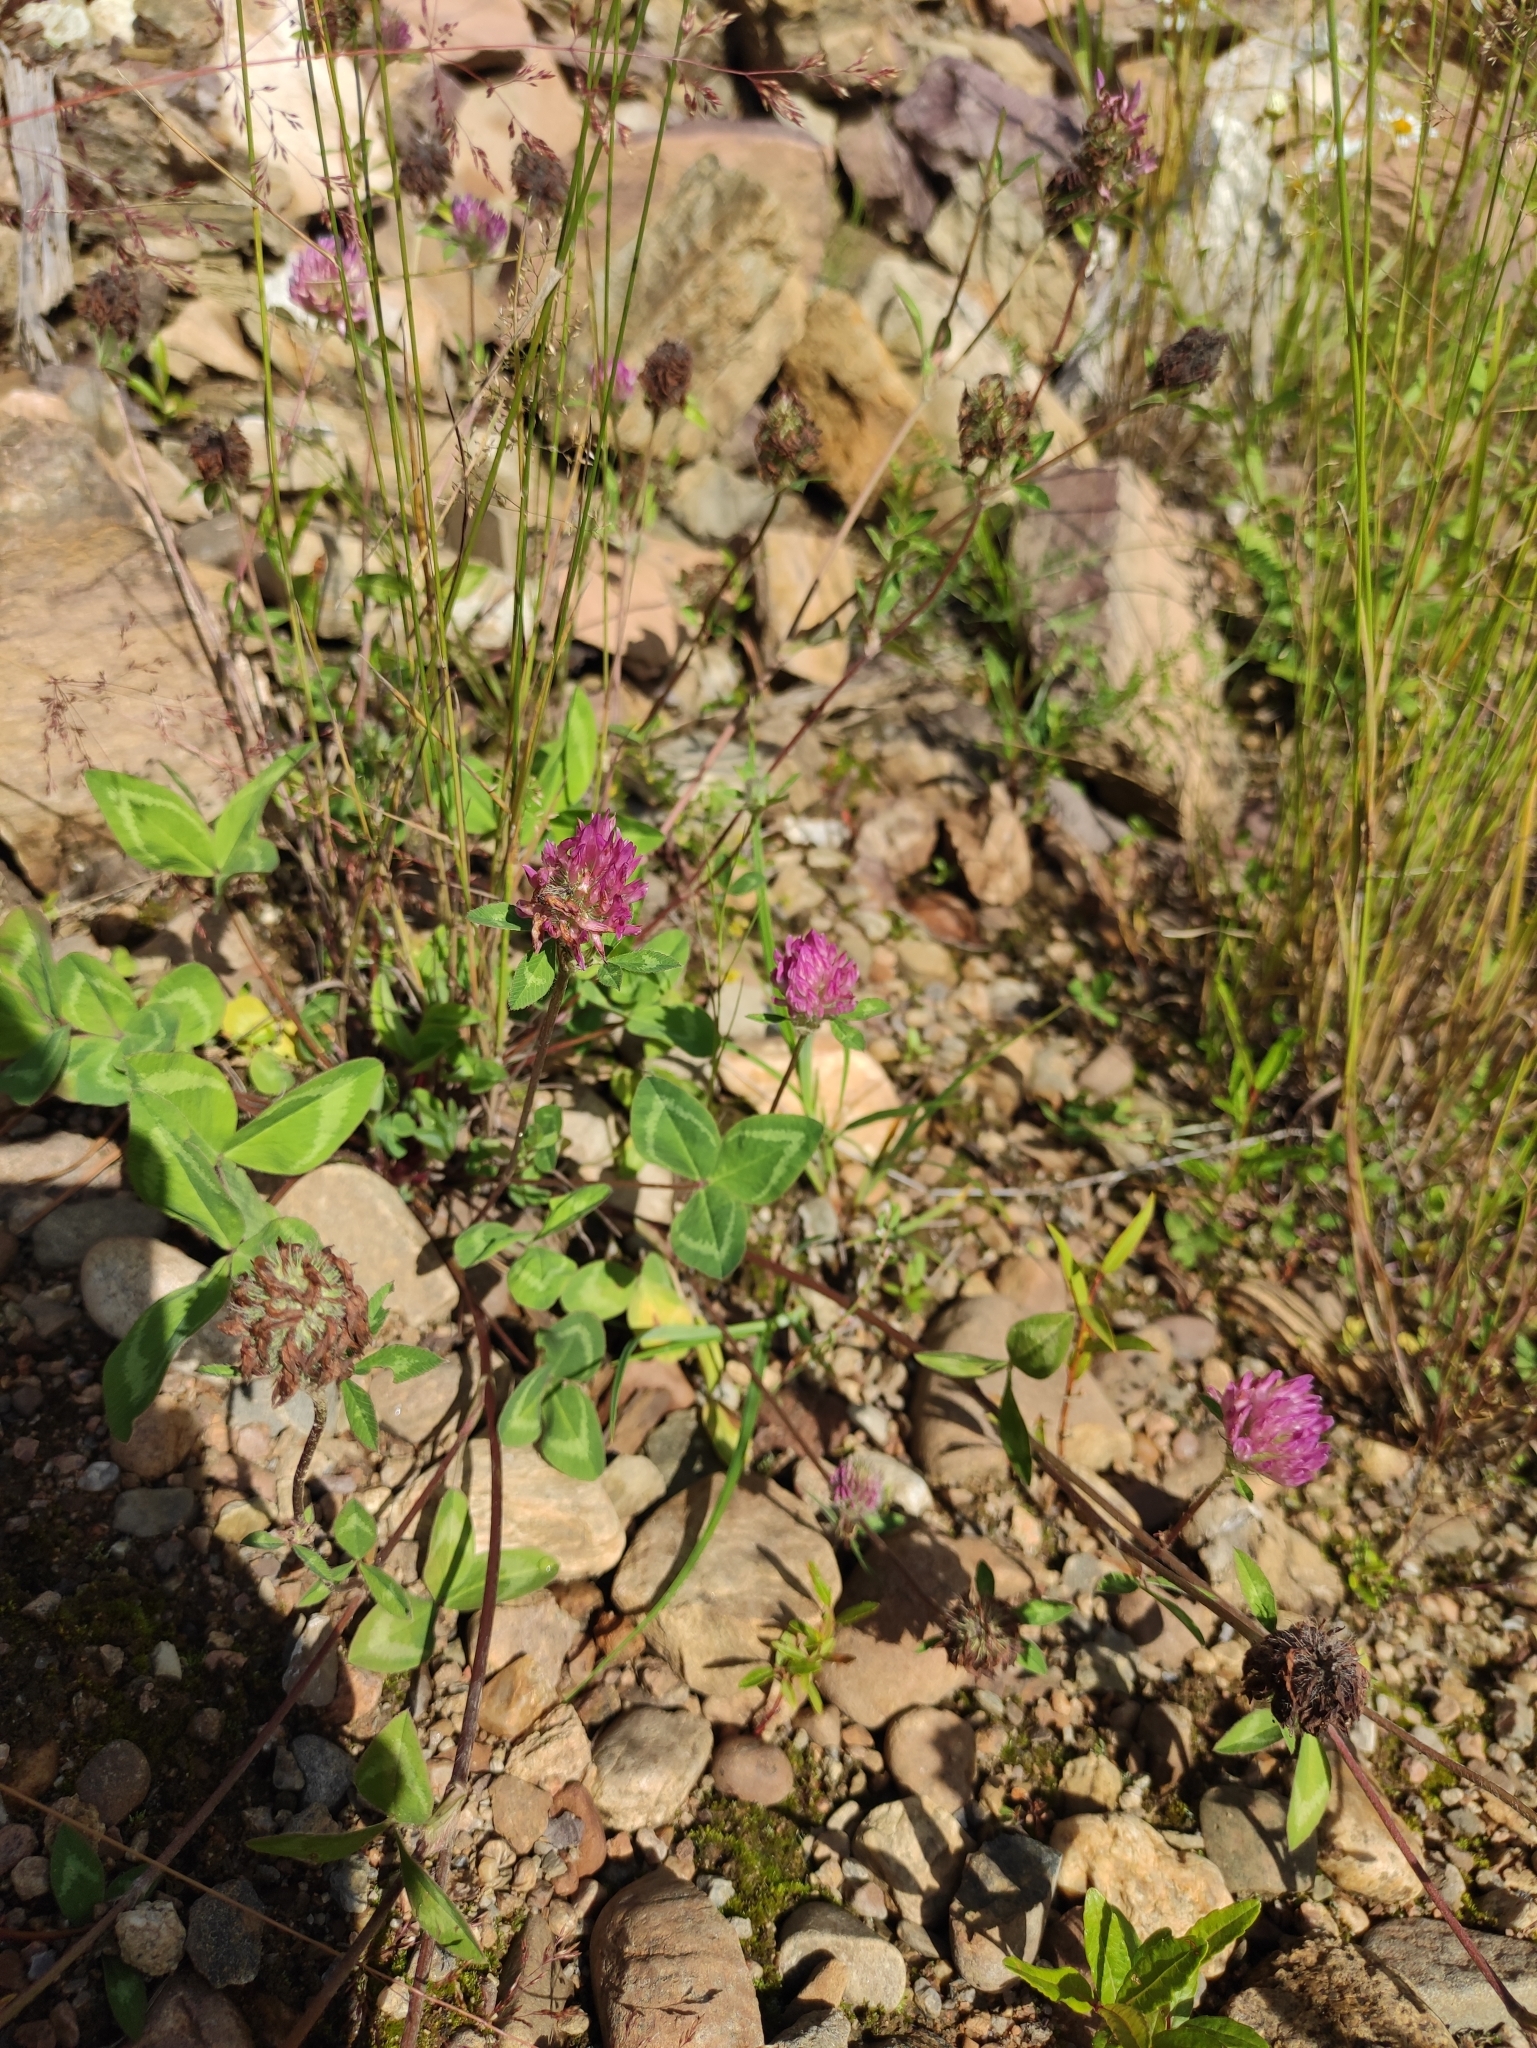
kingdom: Plantae
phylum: Tracheophyta
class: Magnoliopsida
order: Fabales
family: Fabaceae
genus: Trifolium
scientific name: Trifolium pratense
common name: Red clover
